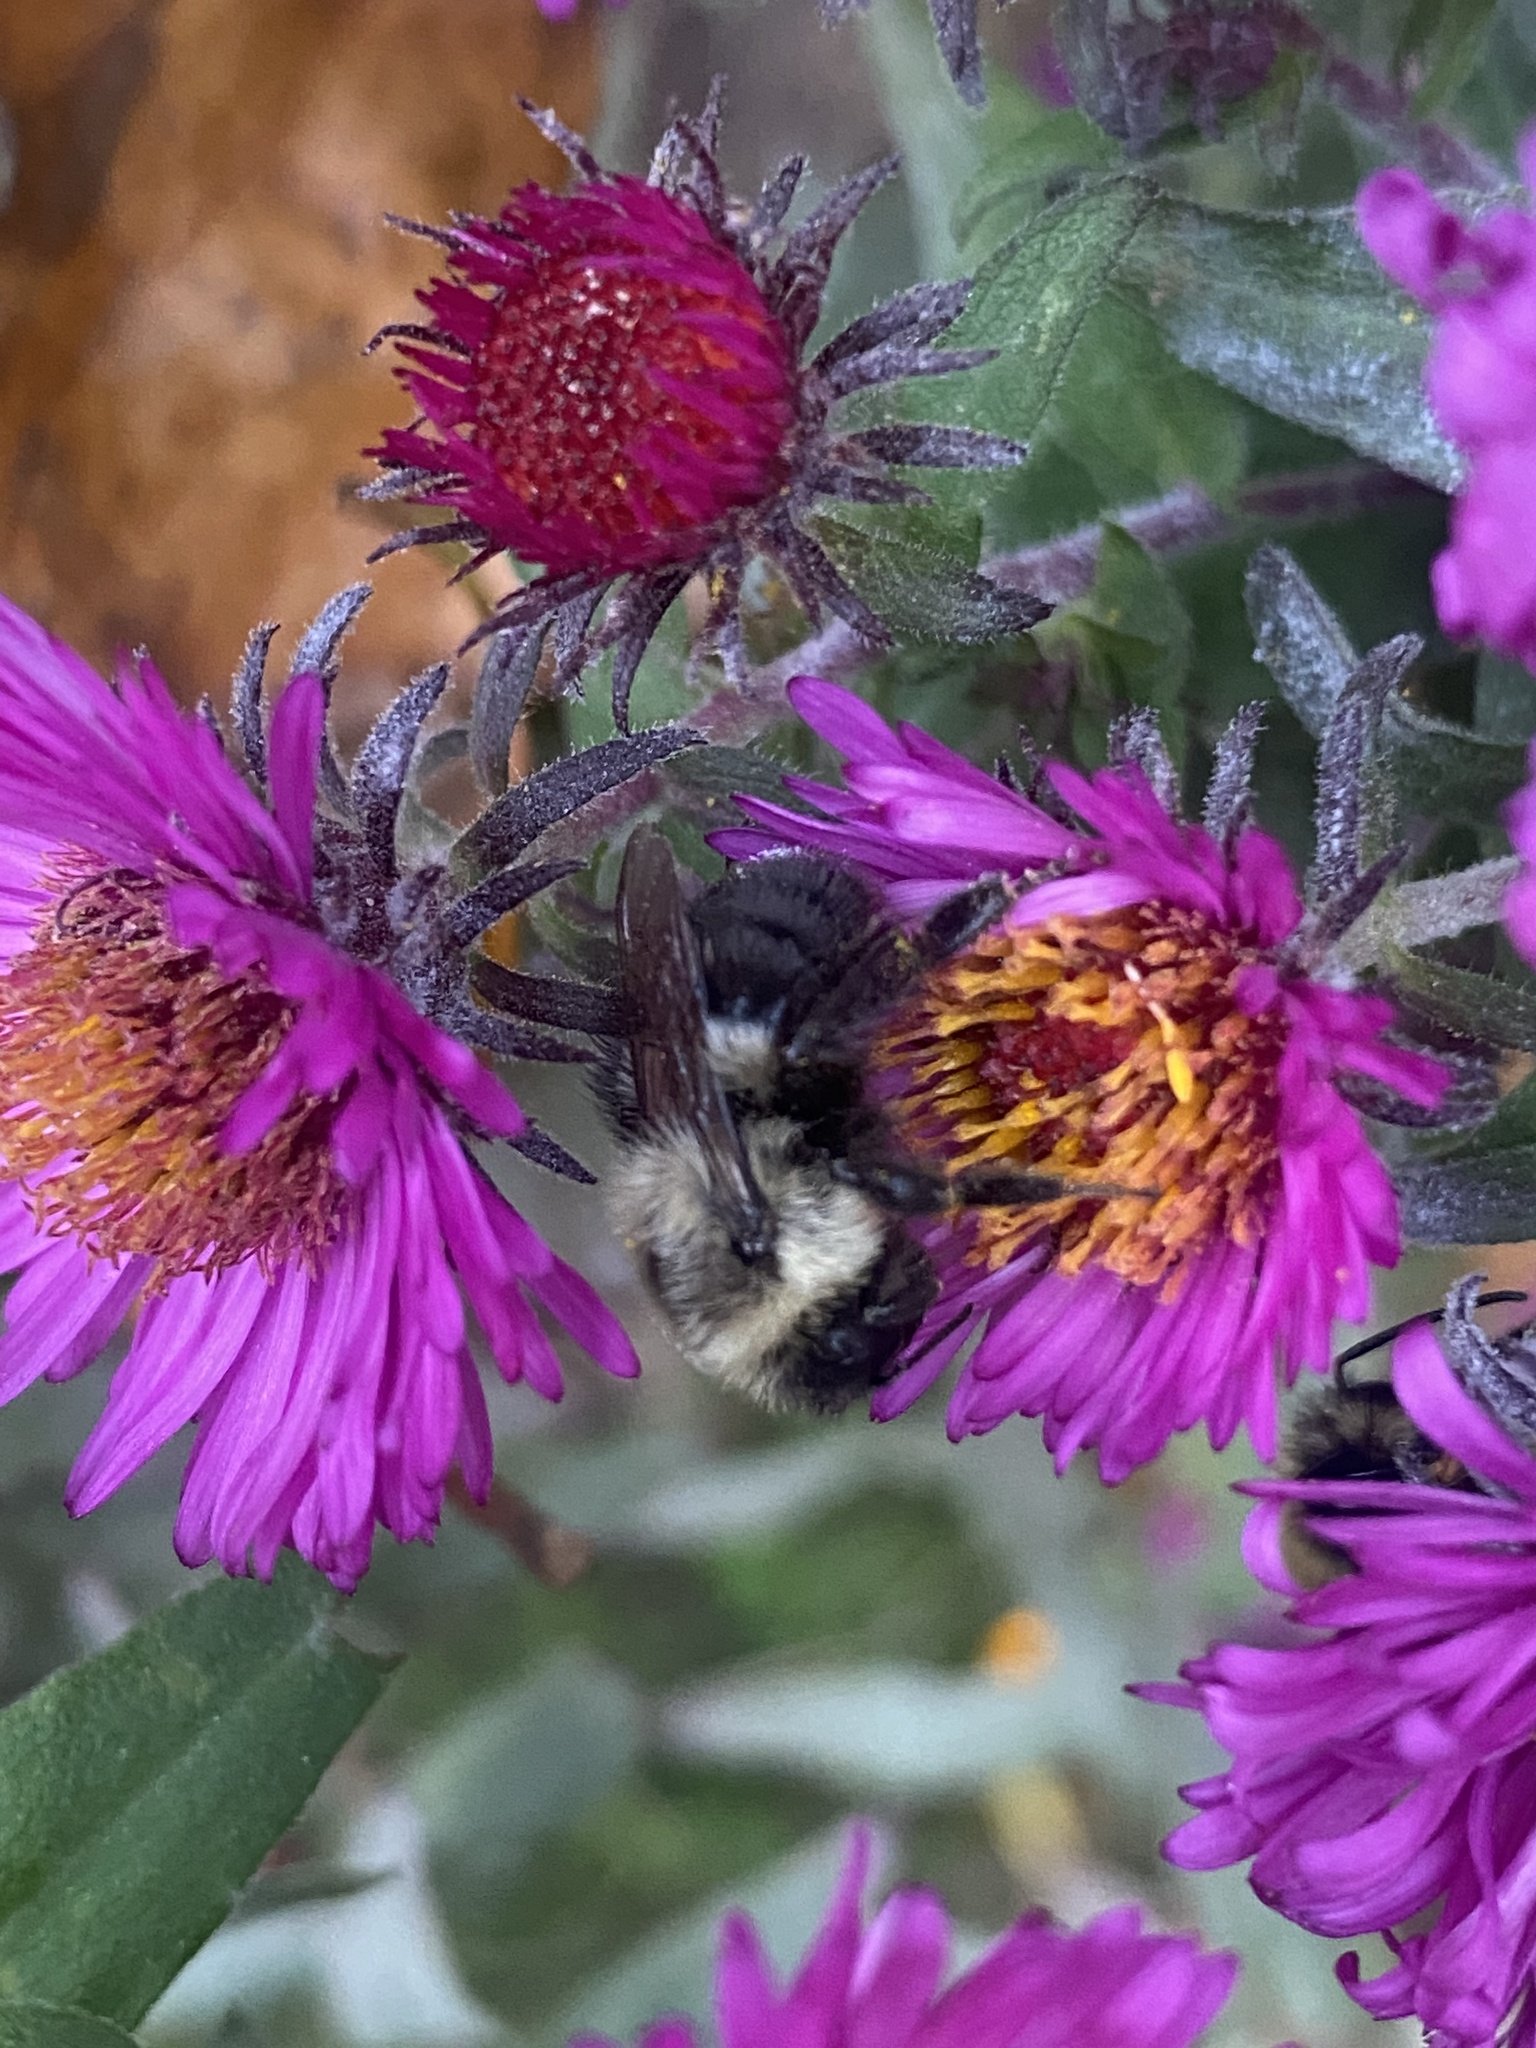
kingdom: Animalia
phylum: Arthropoda
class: Insecta
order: Hymenoptera
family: Apidae
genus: Bombus
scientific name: Bombus impatiens
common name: Common eastern bumble bee
